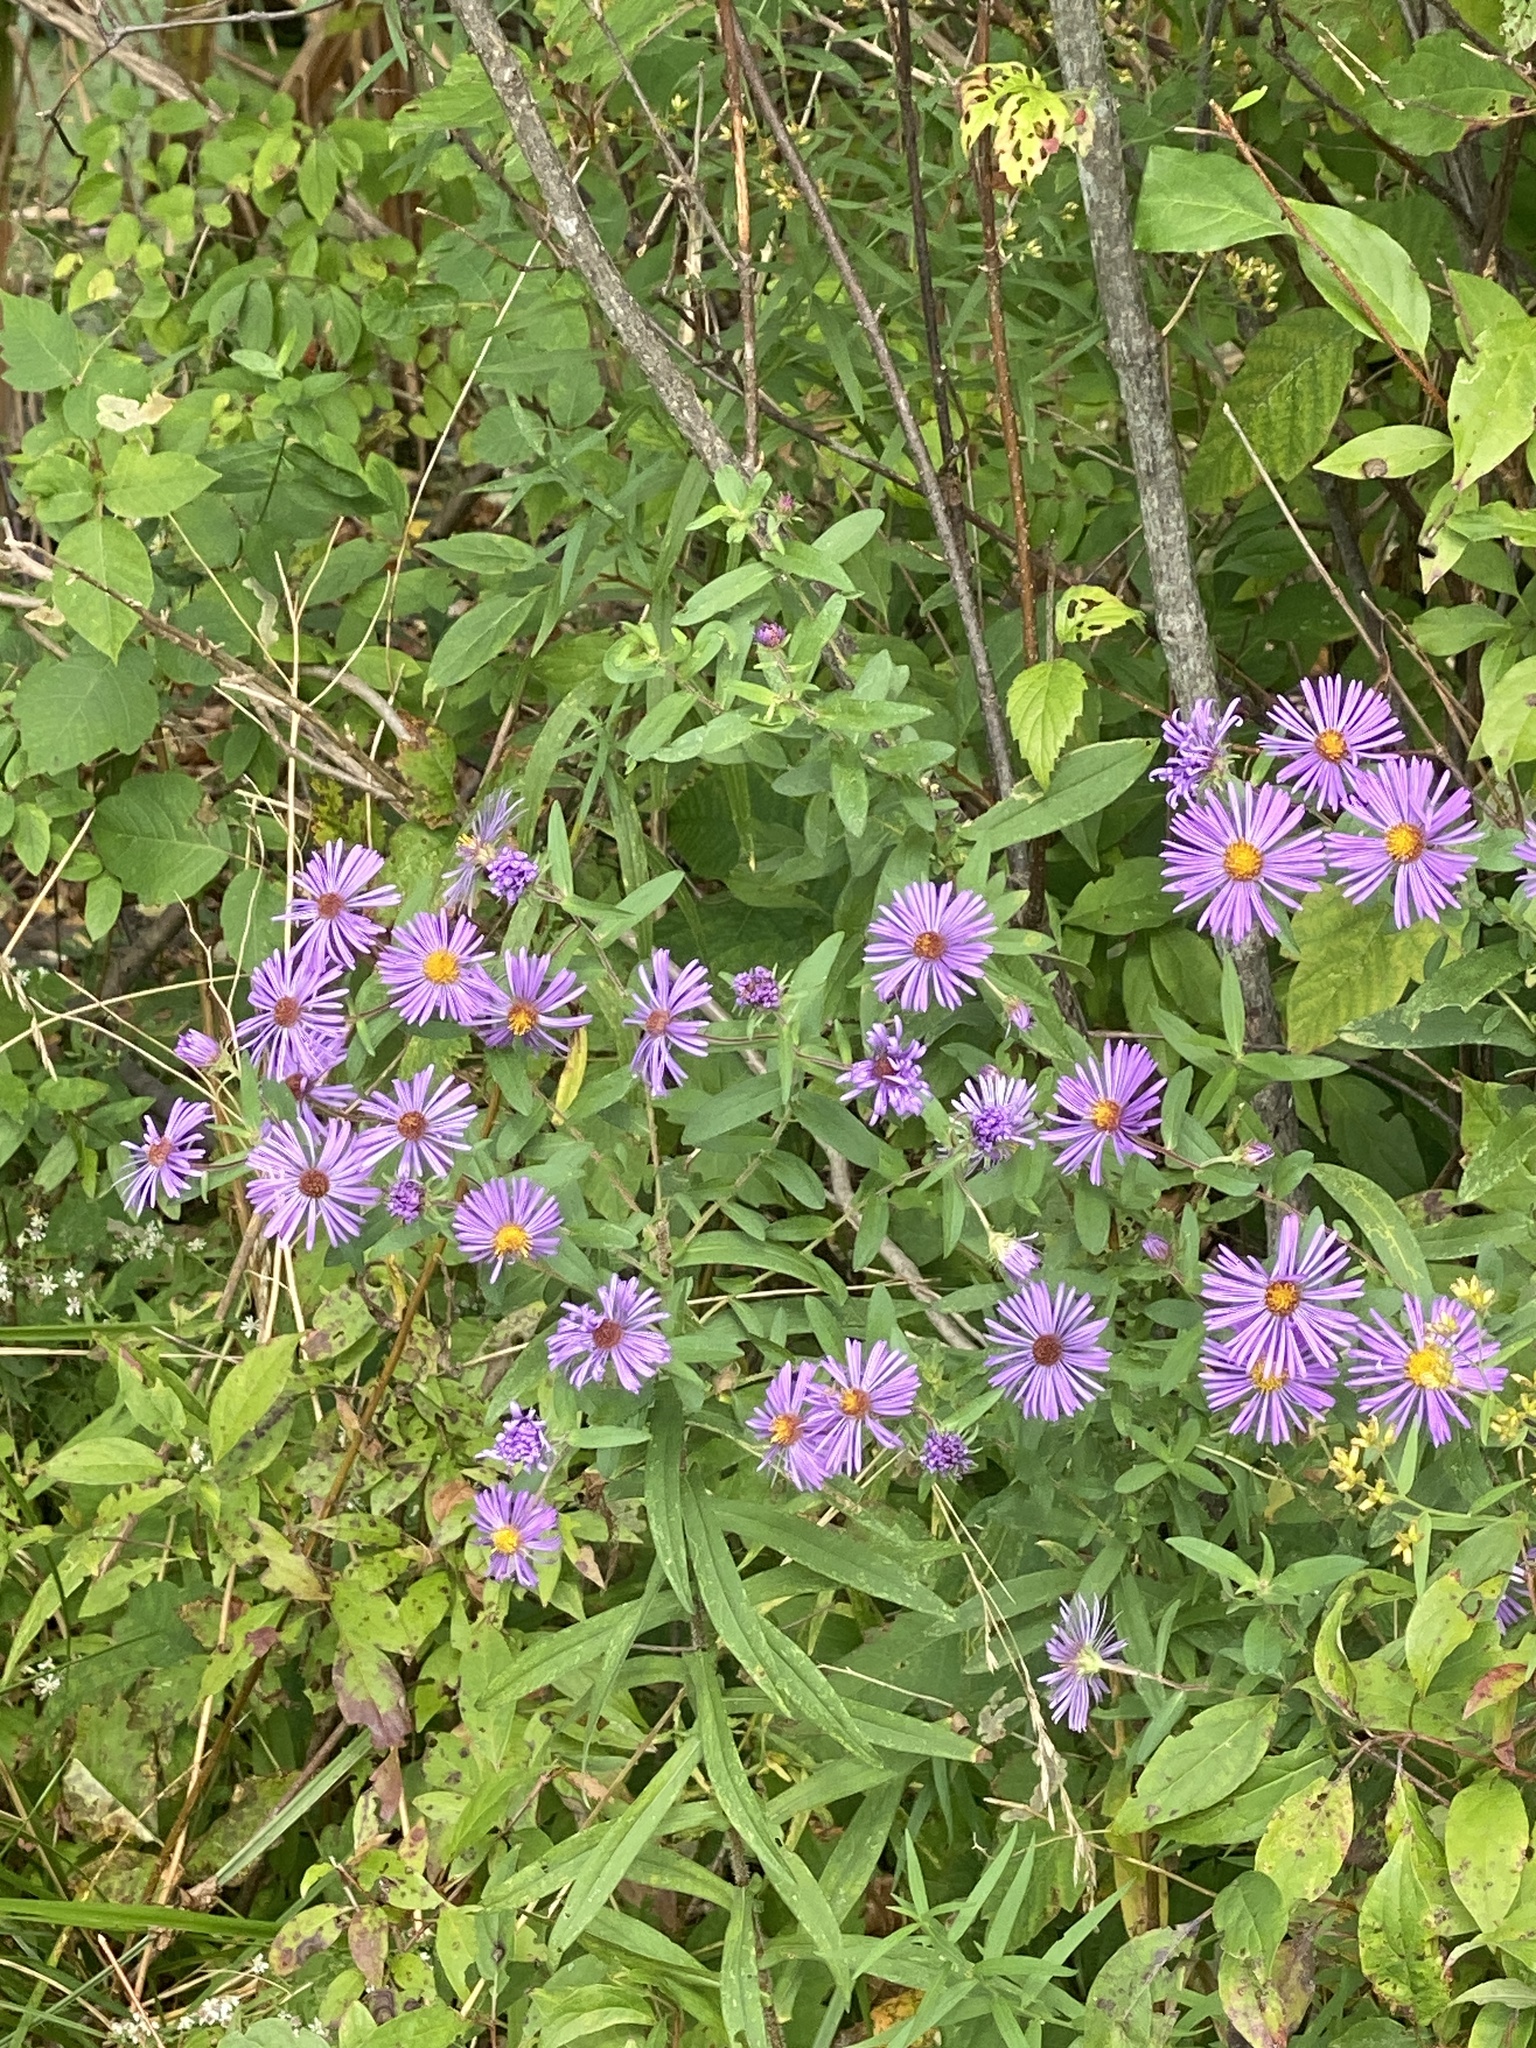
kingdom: Plantae
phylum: Tracheophyta
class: Magnoliopsida
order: Asterales
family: Asteraceae
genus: Symphyotrichum
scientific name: Symphyotrichum novae-angliae
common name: Michaelmas daisy
